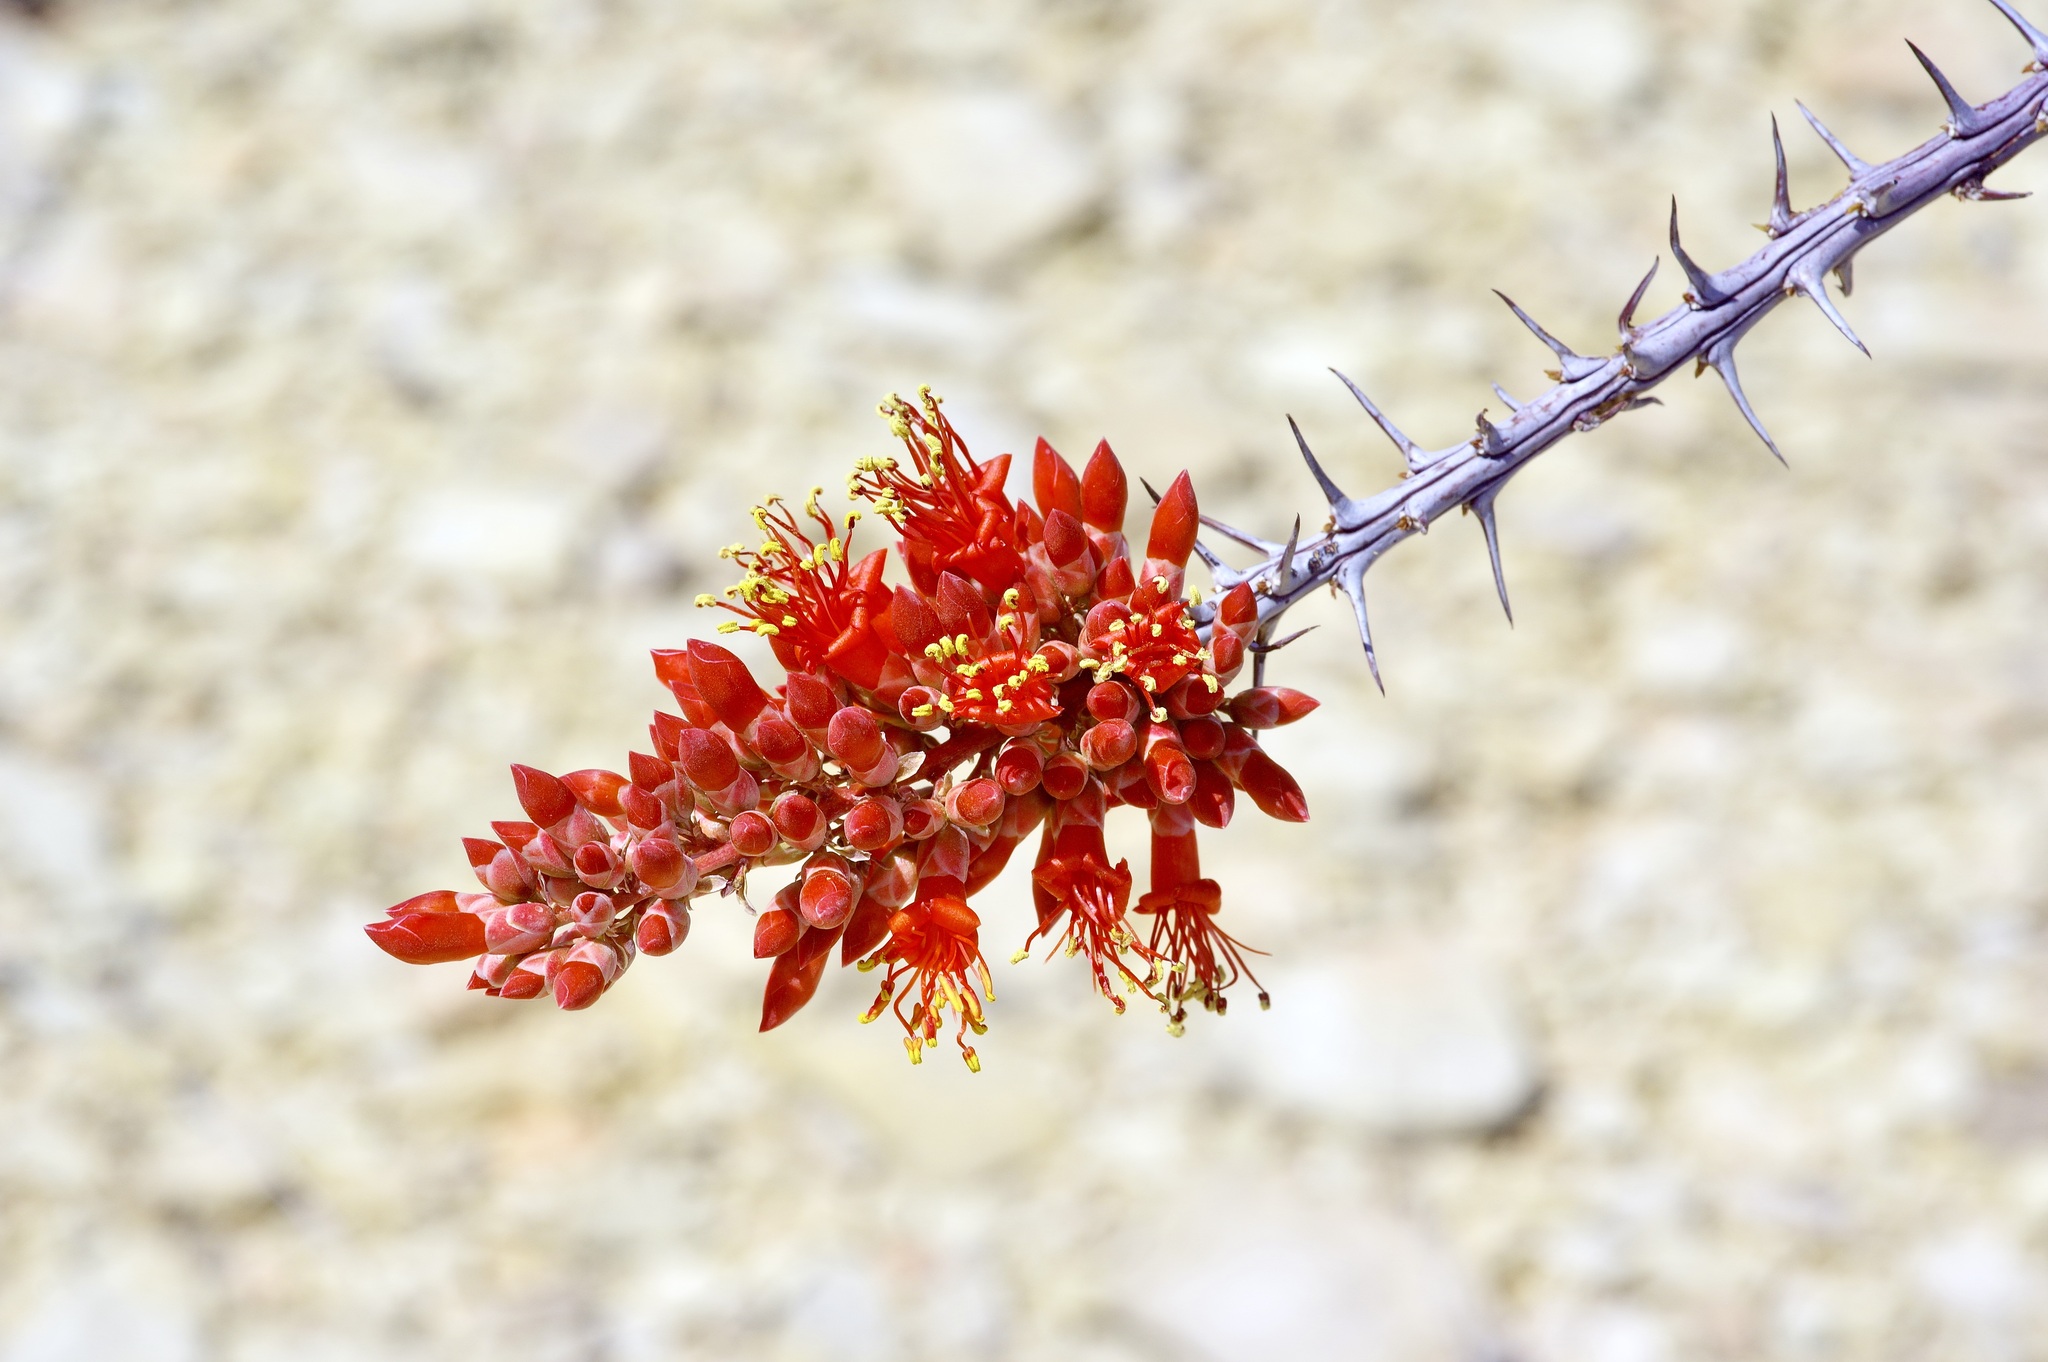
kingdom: Plantae
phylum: Tracheophyta
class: Magnoliopsida
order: Ericales
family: Fouquieriaceae
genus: Fouquieria
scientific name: Fouquieria splendens
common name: Vine-cactus
